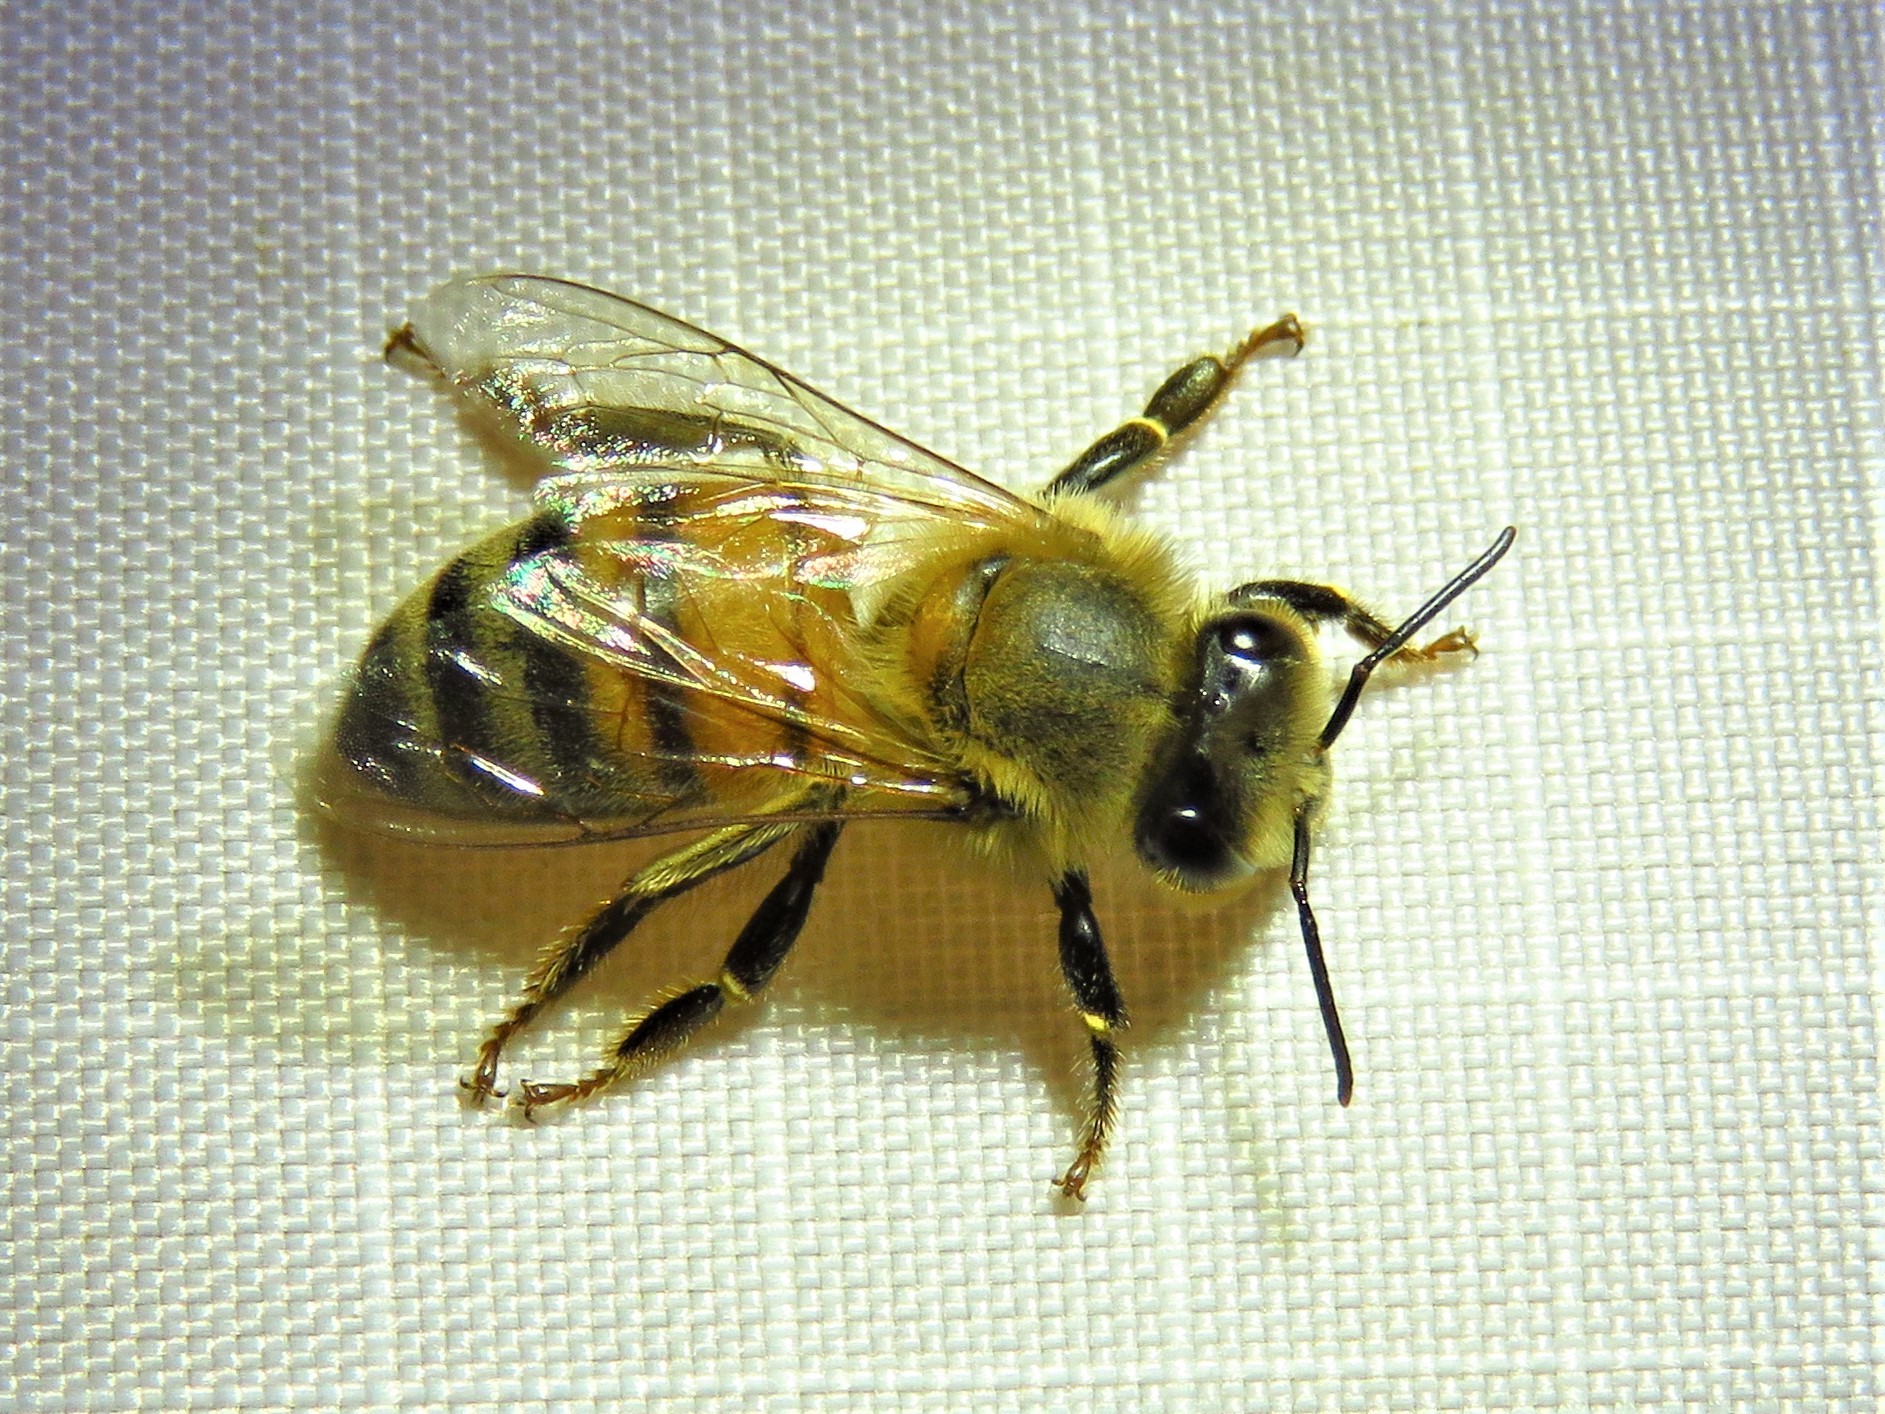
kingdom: Animalia
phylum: Arthropoda
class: Insecta
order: Hymenoptera
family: Apidae
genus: Apis
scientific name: Apis mellifera
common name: Honey bee
